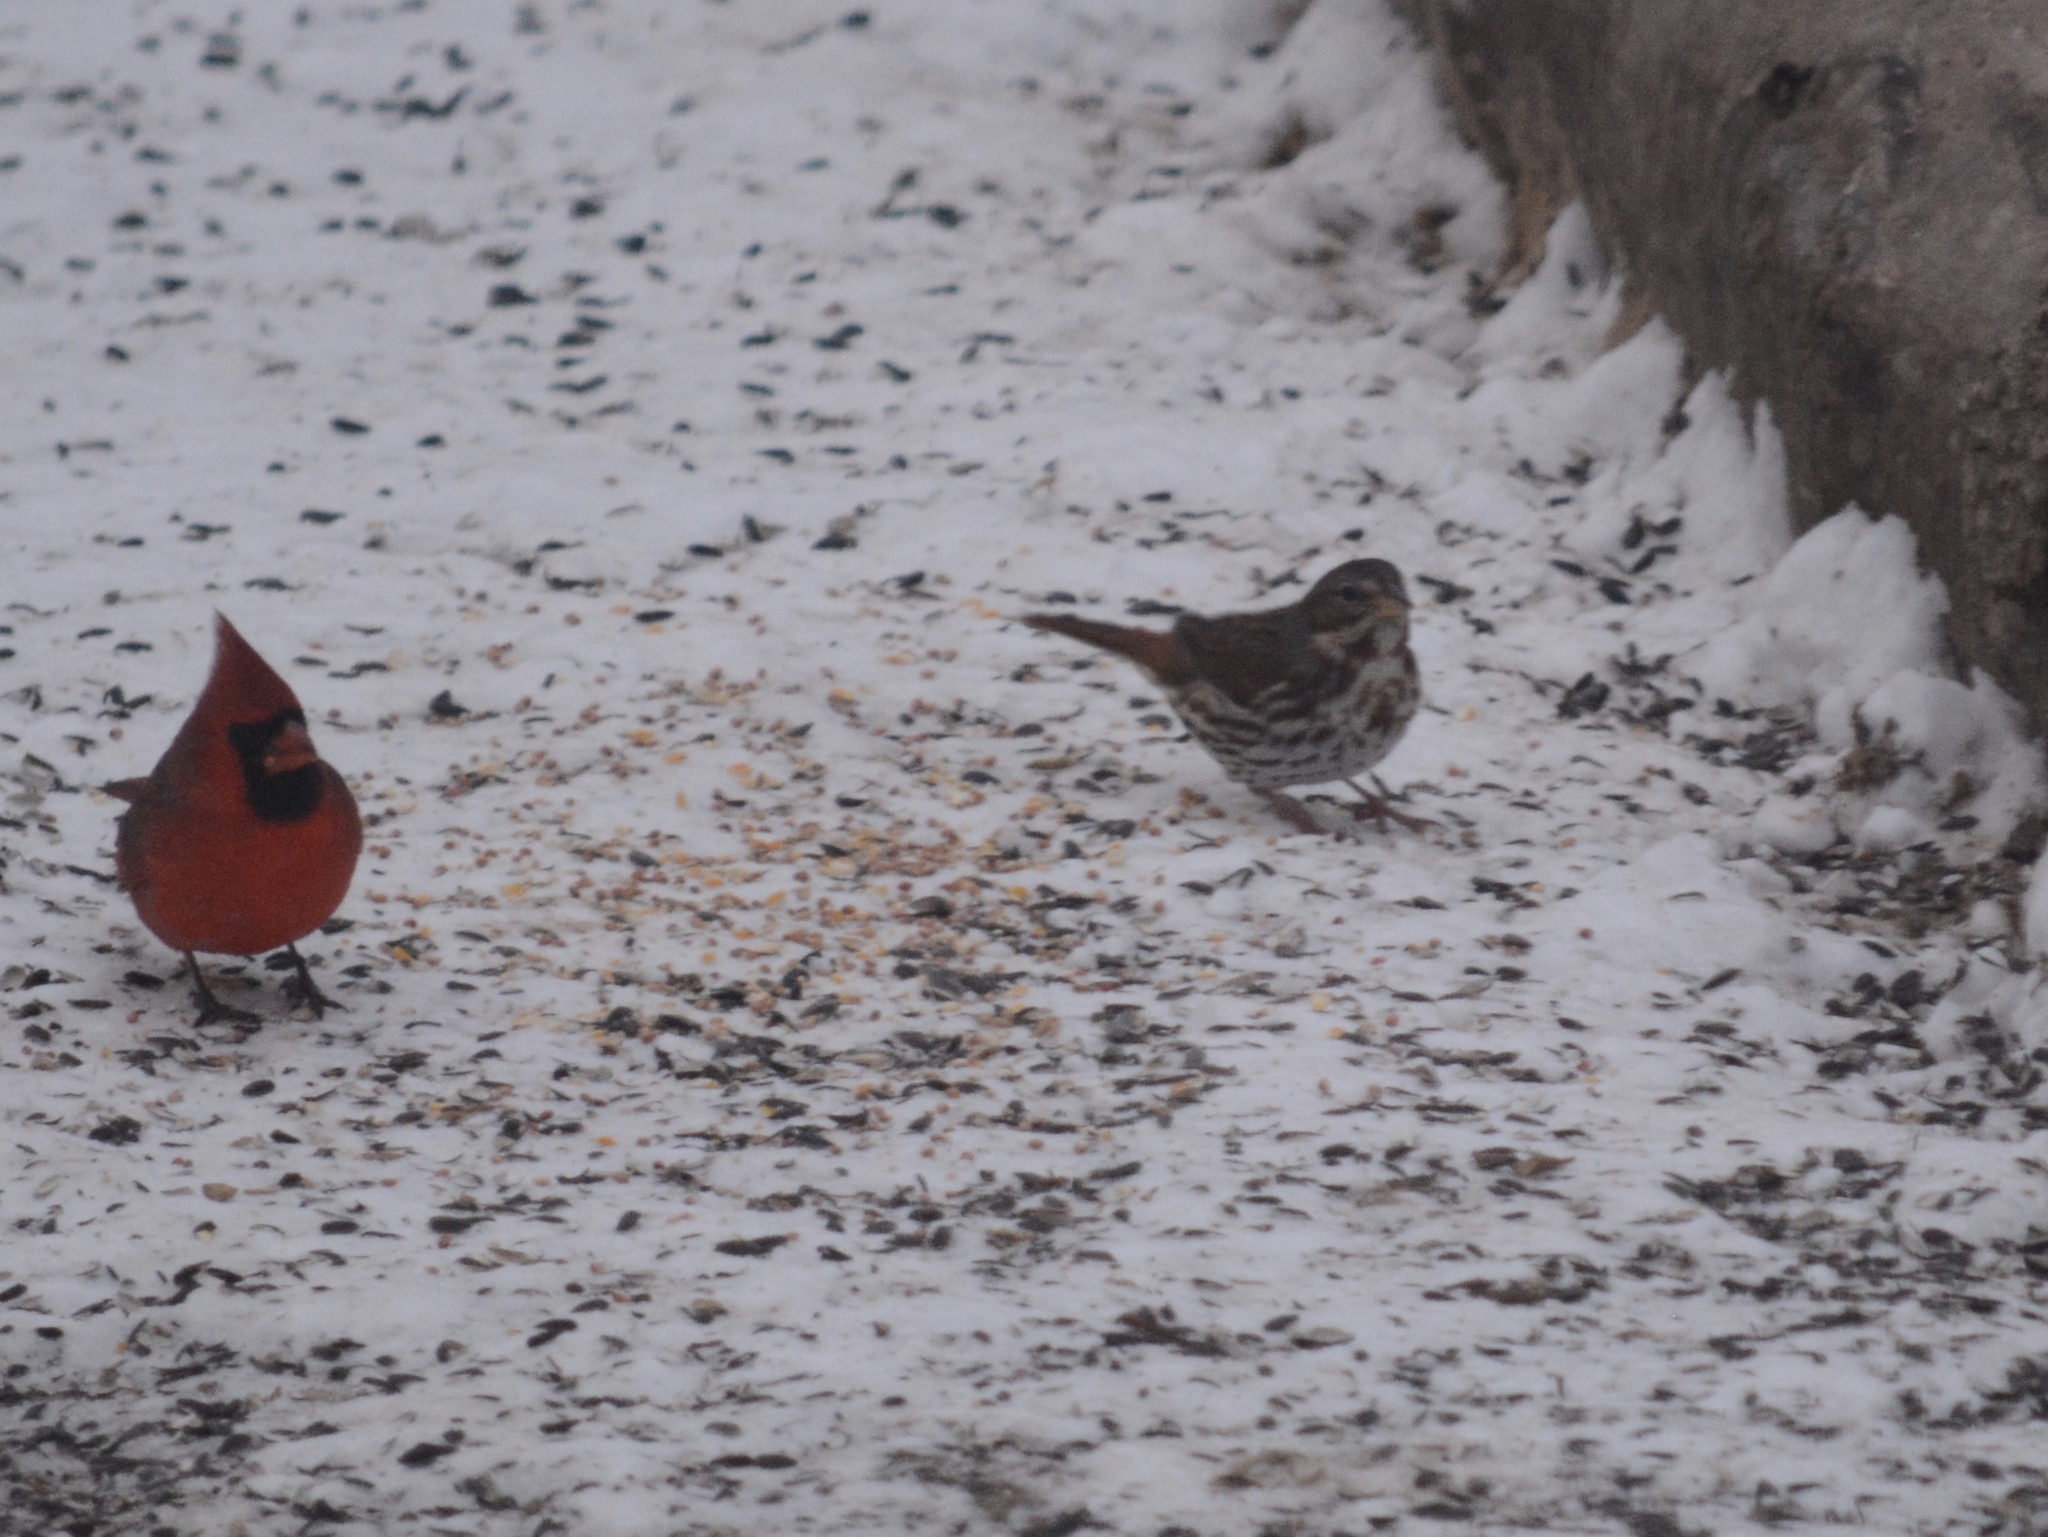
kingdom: Animalia
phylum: Chordata
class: Aves
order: Passeriformes
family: Passerellidae
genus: Passerella
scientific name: Passerella iliaca
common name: Fox sparrow
